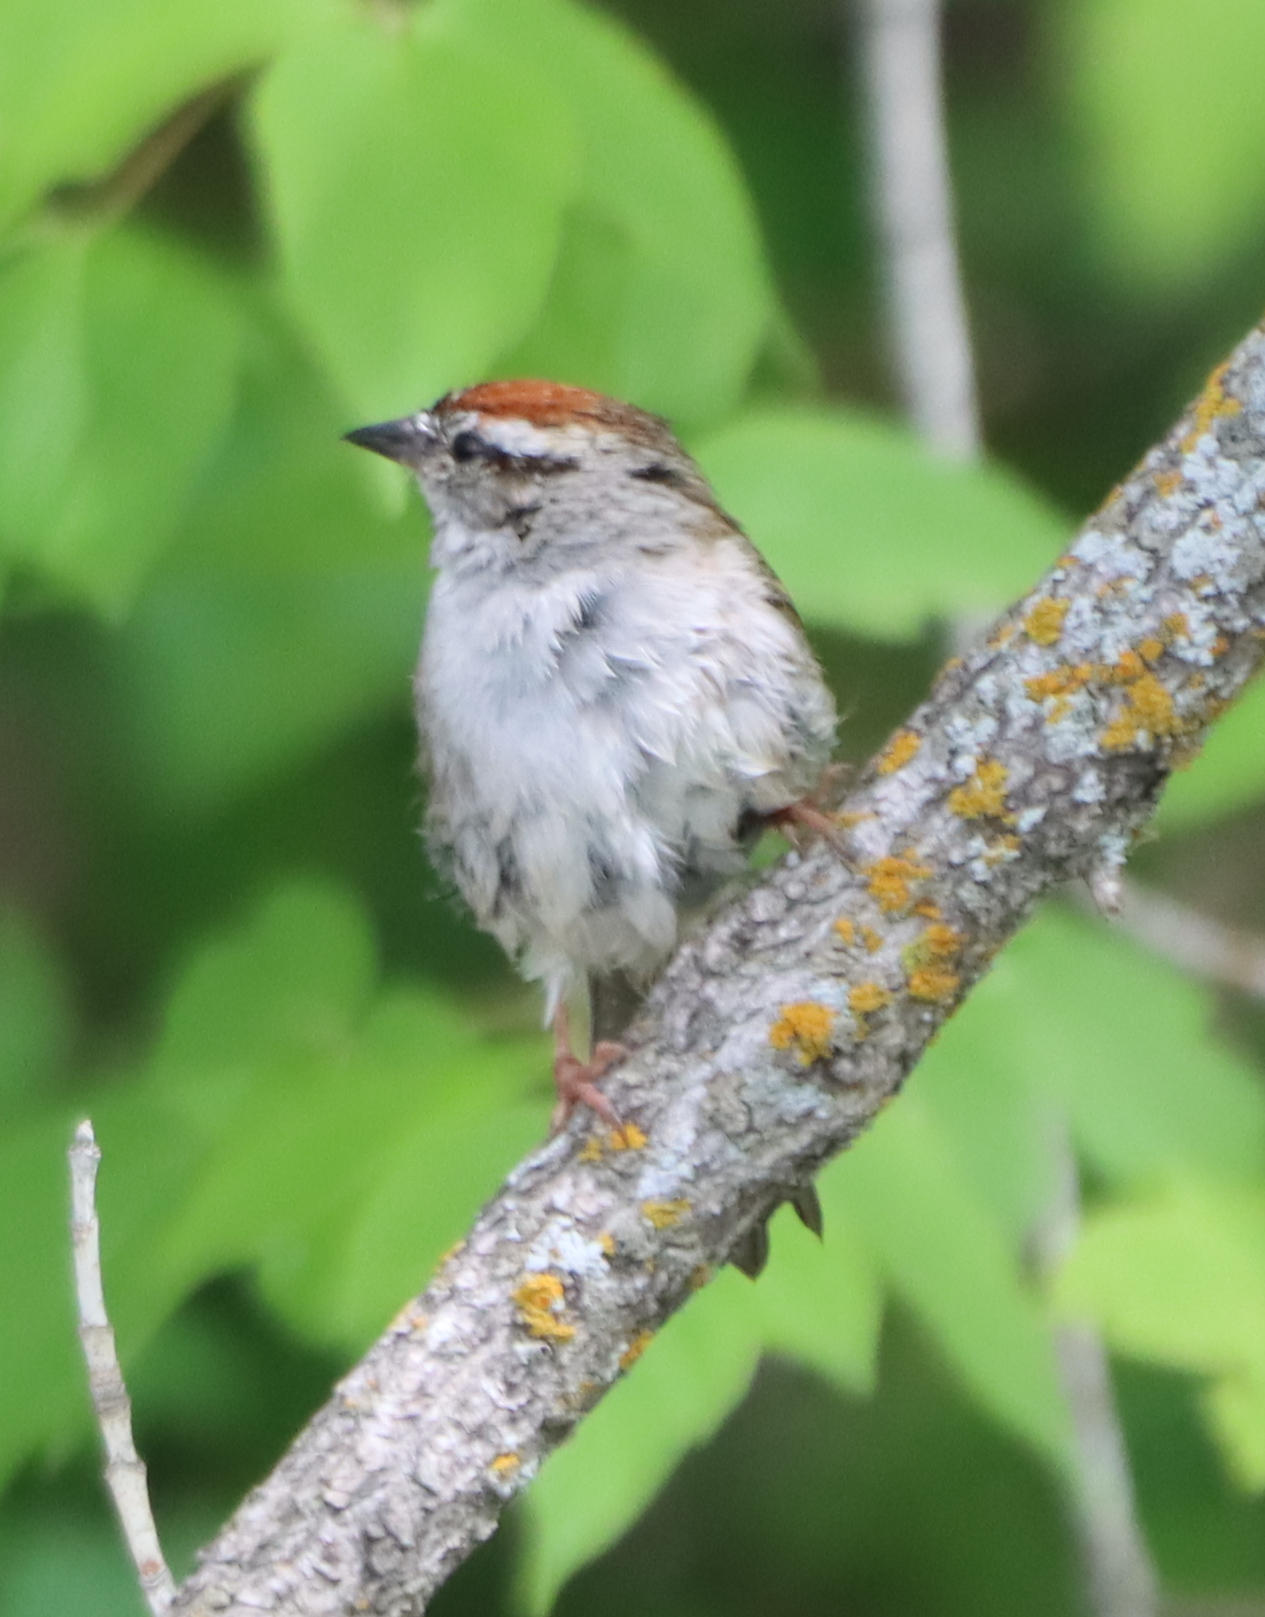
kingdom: Animalia
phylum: Chordata
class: Aves
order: Passeriformes
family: Passerellidae
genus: Spizella
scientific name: Spizella passerina
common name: Chipping sparrow
